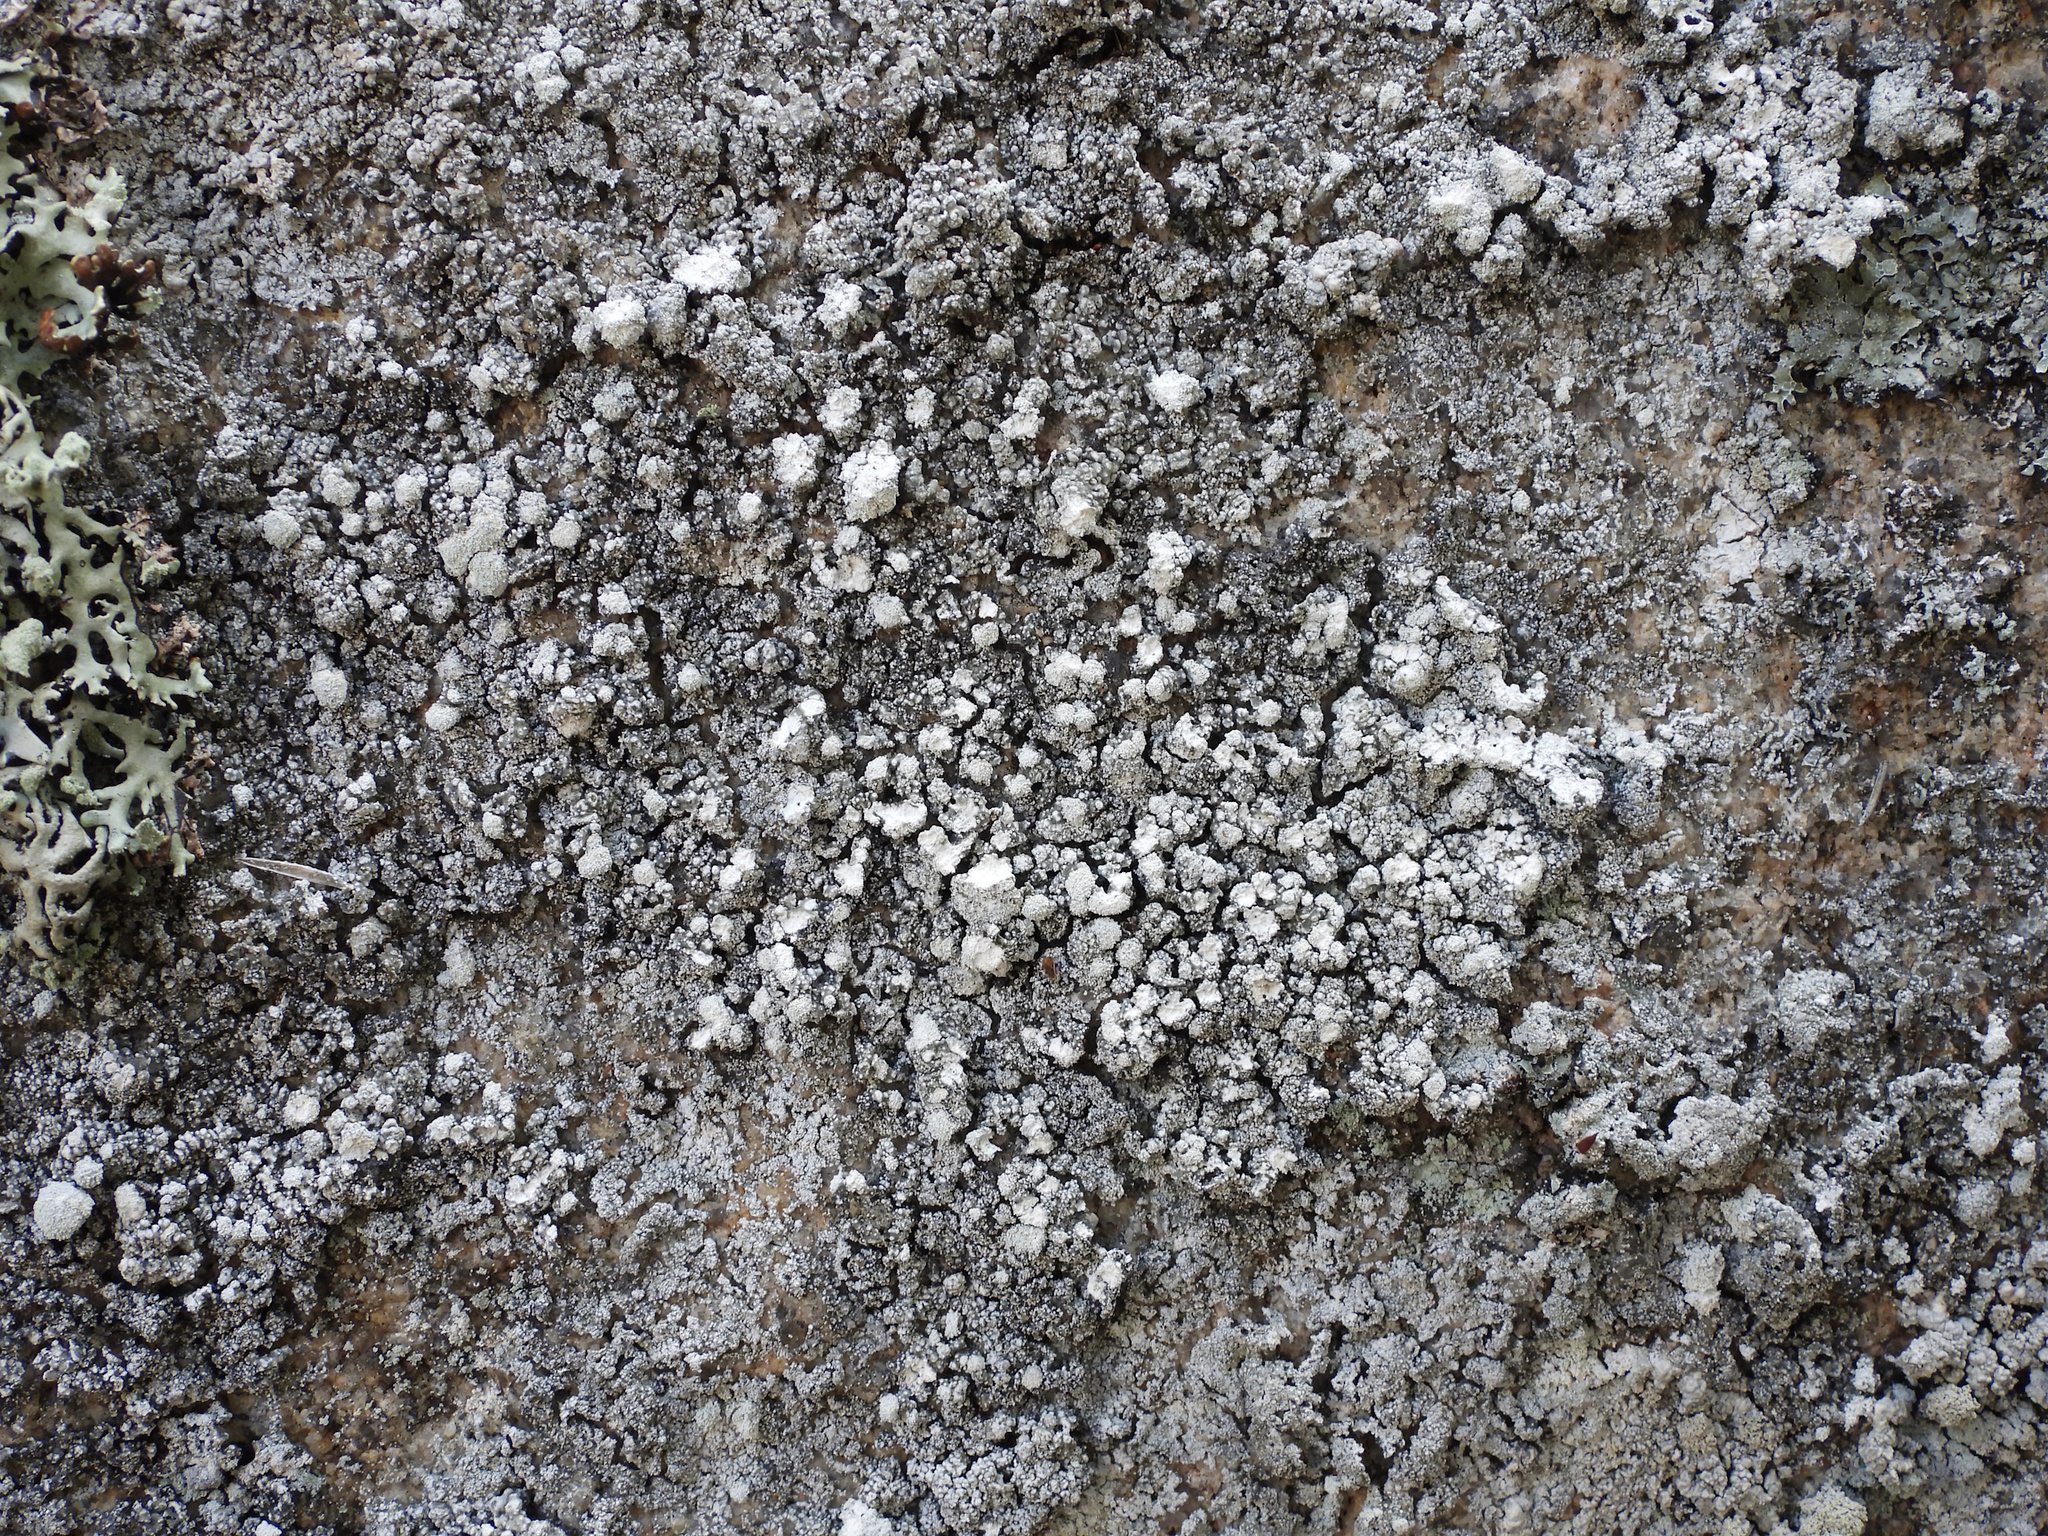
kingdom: Fungi
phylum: Ascomycota
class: Lecanoromycetes
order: Pertusariales
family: Pertusariaceae
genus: Lepra
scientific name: Lepra amara
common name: Bitter wart lichen
